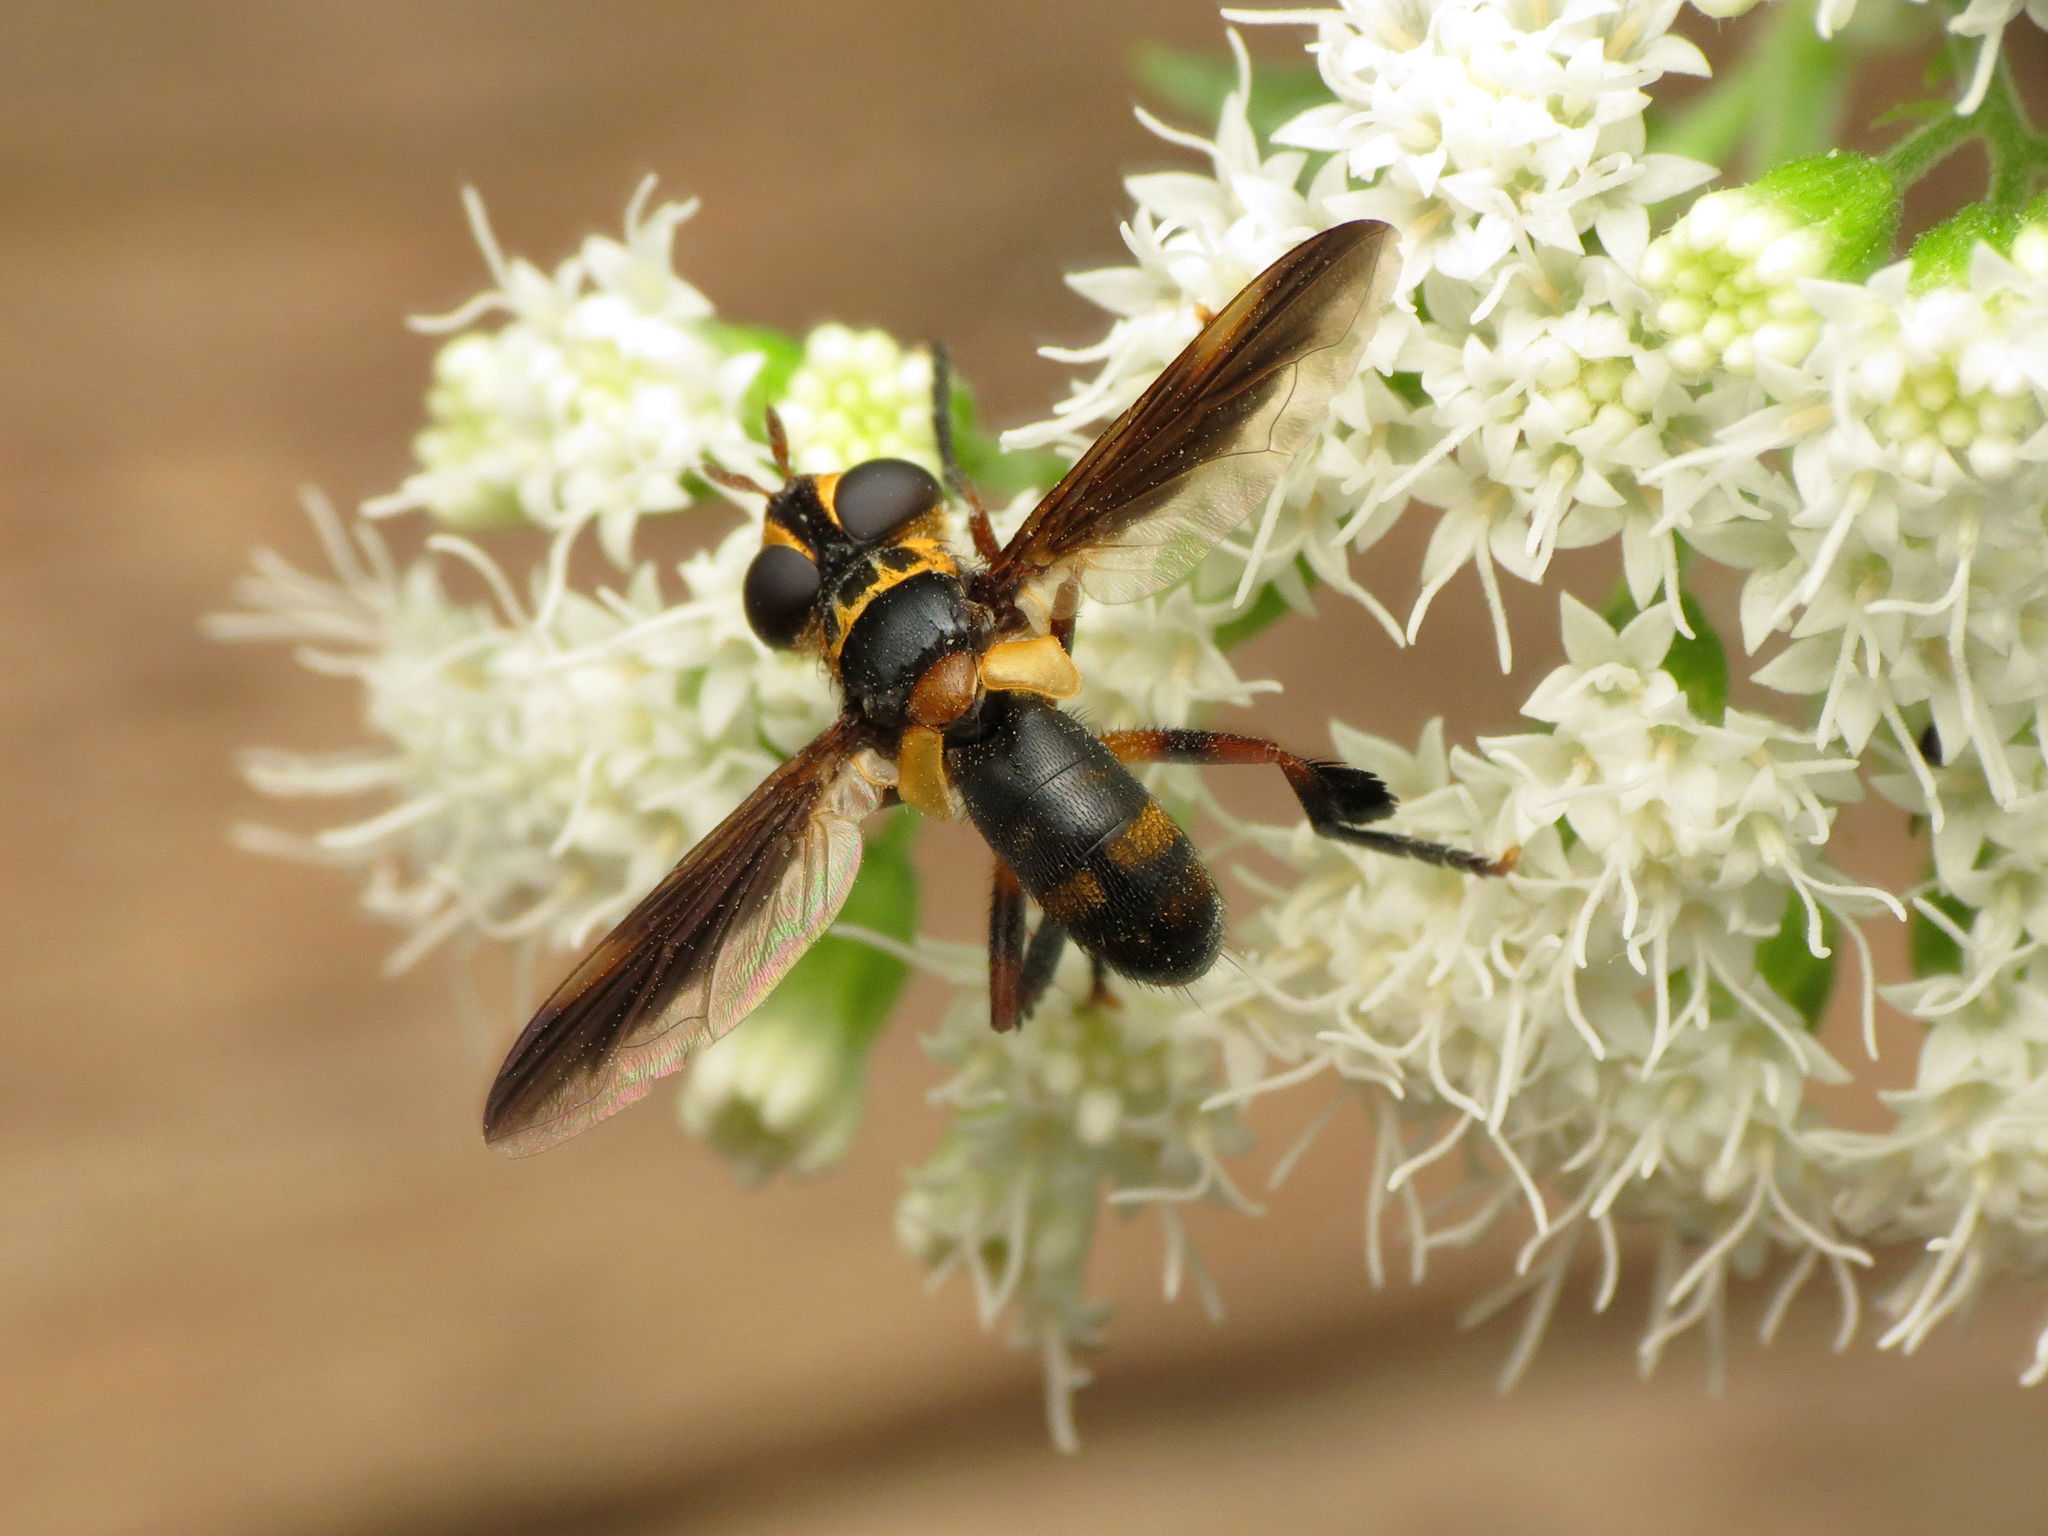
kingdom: Animalia
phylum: Arthropoda
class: Insecta
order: Diptera
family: Tachinidae
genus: Trichopoda
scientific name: Trichopoda plumipes
